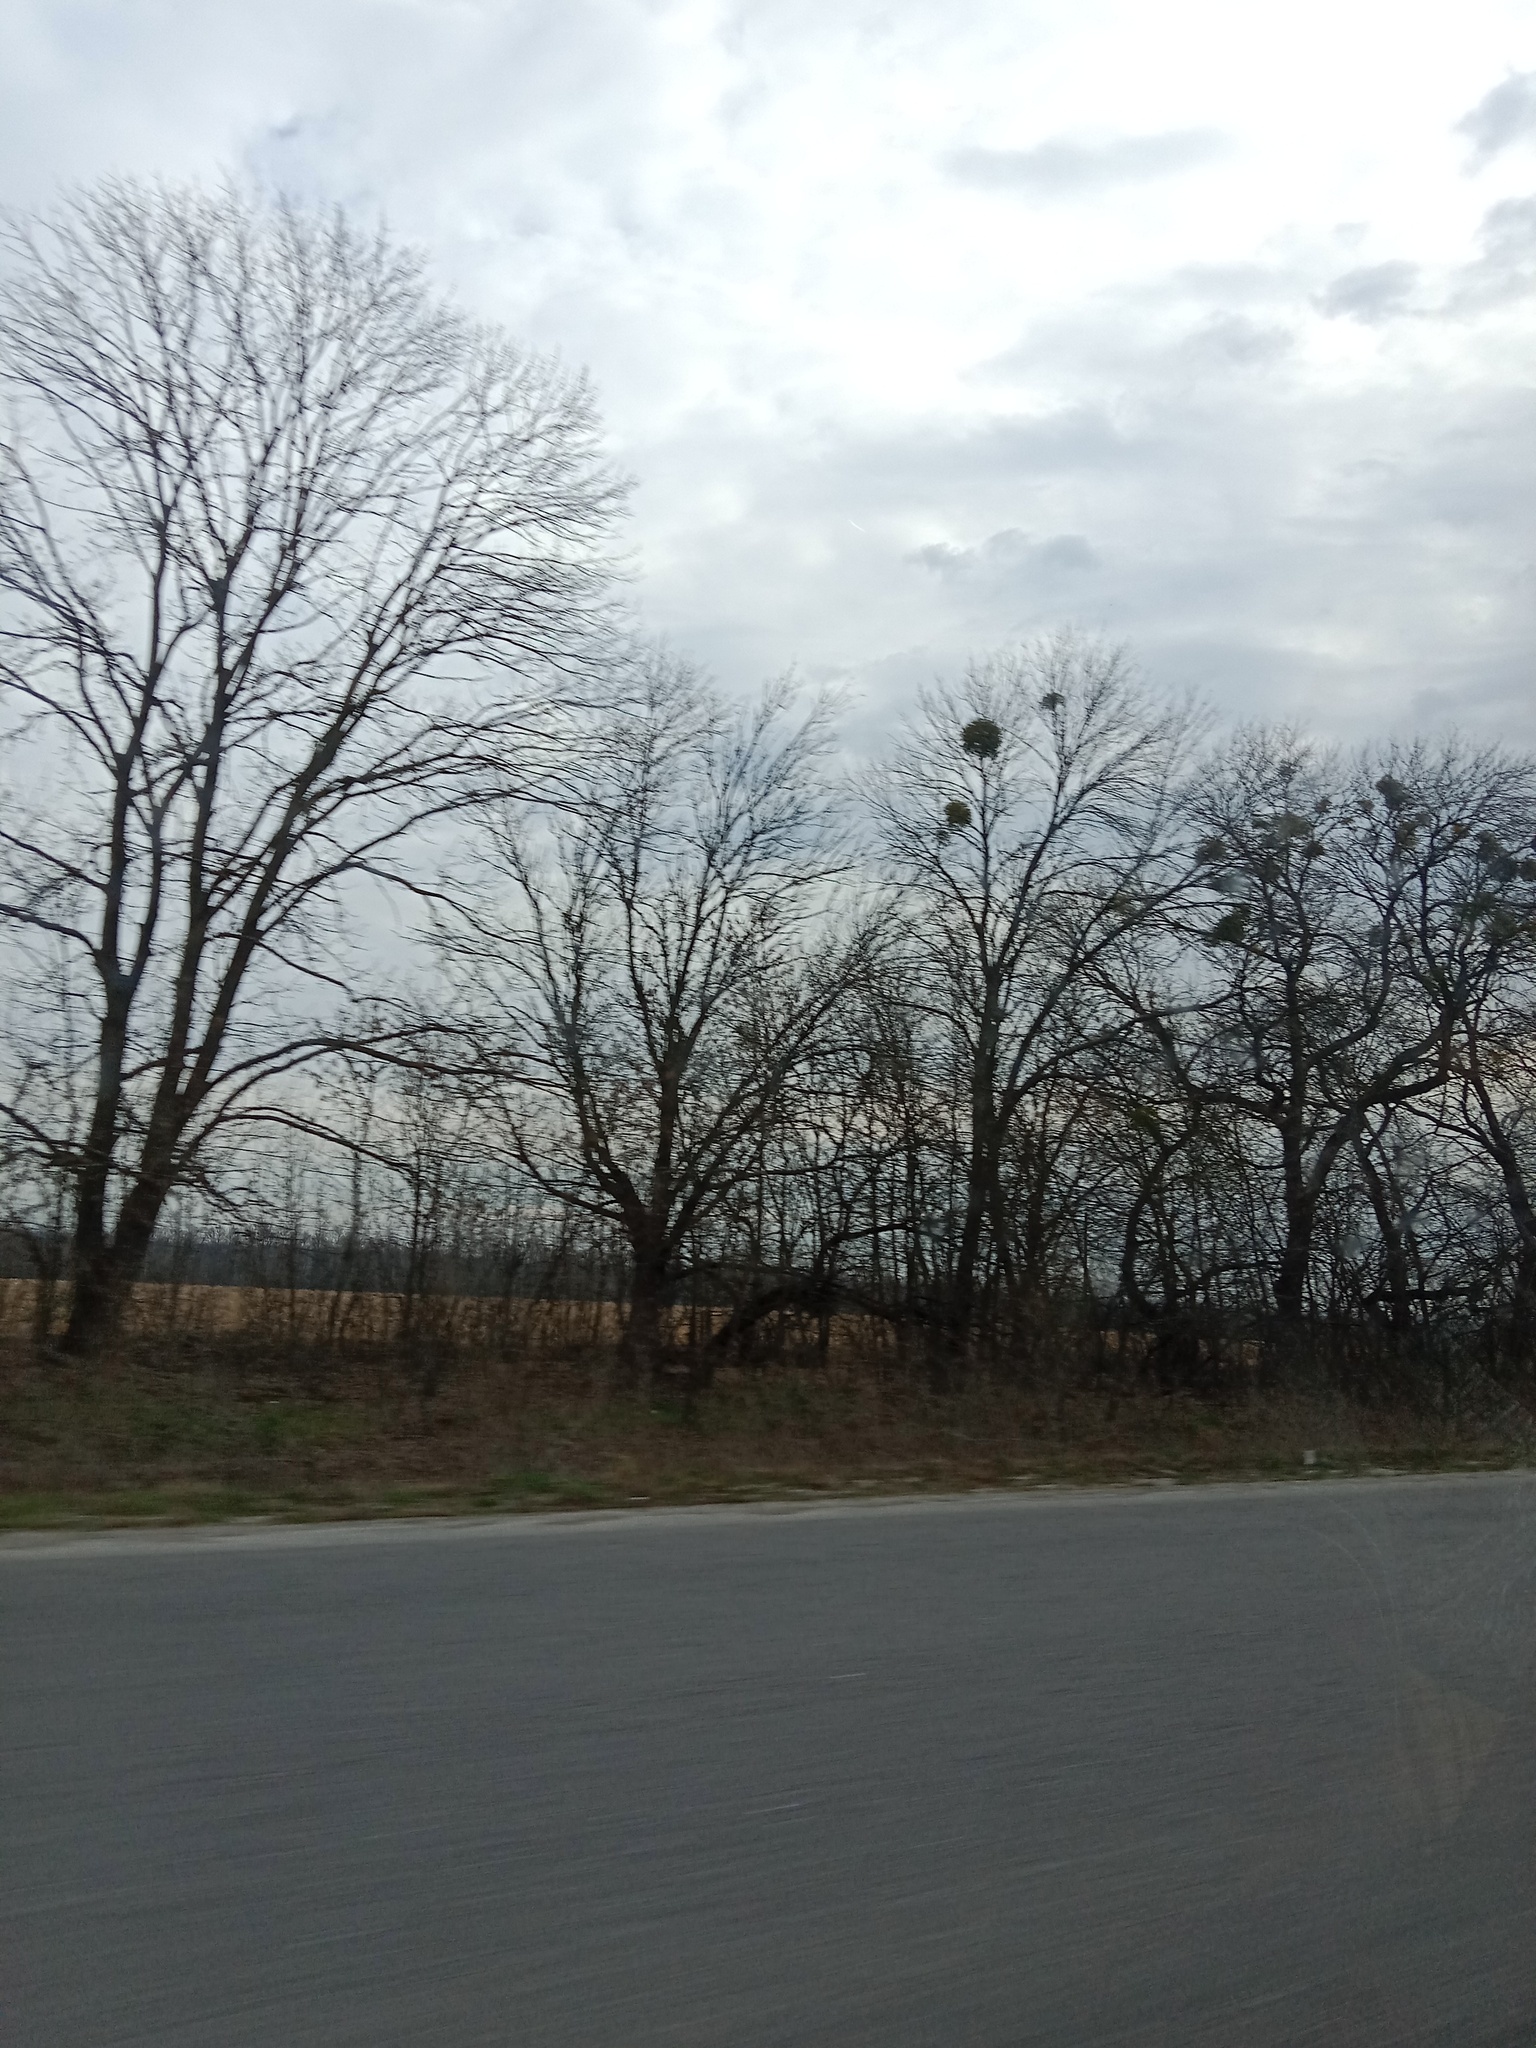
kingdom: Plantae
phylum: Tracheophyta
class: Magnoliopsida
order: Santalales
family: Viscaceae
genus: Viscum
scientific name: Viscum album
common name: Mistletoe
